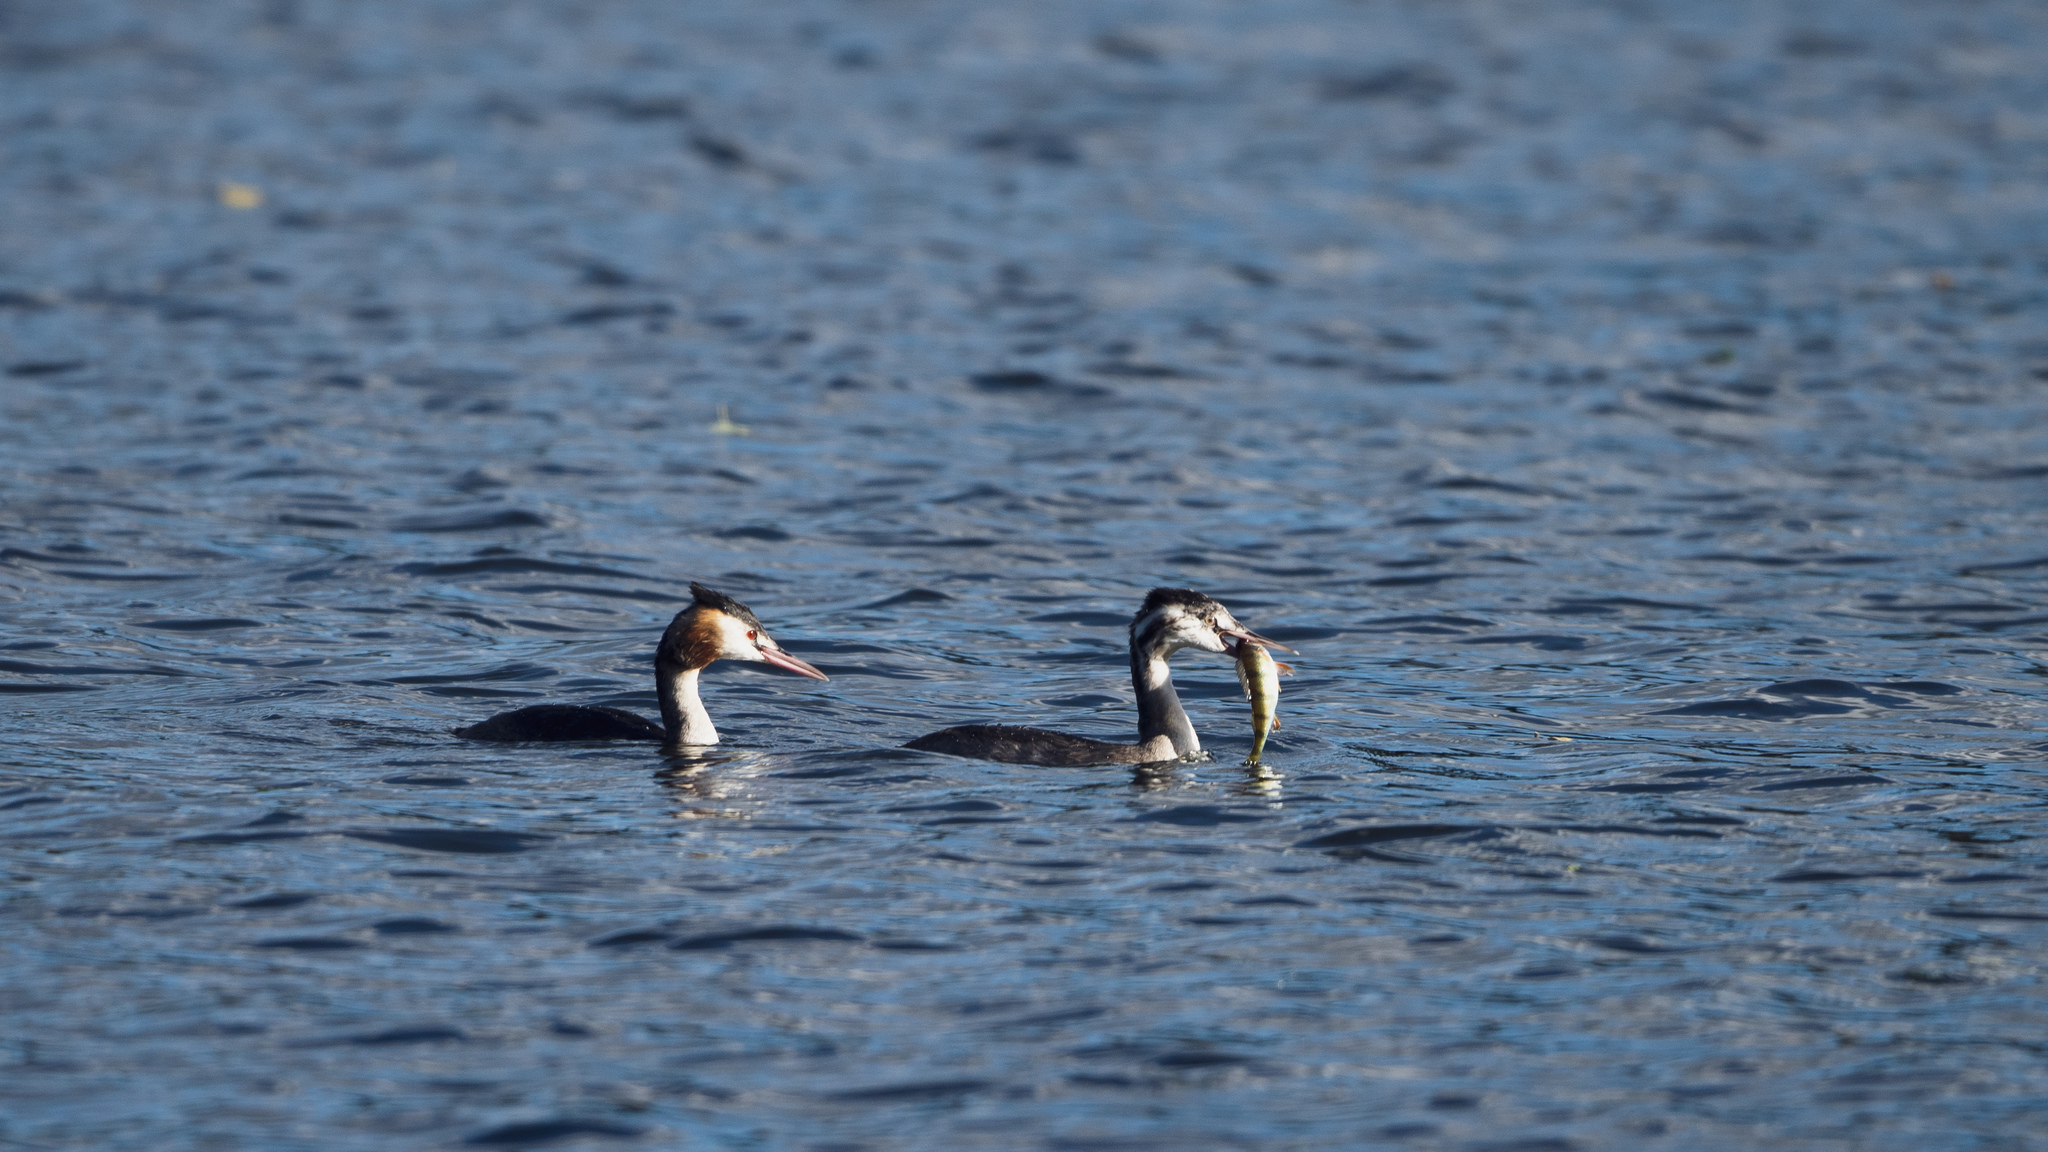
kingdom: Animalia
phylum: Chordata
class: Aves
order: Podicipediformes
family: Podicipedidae
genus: Podiceps
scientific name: Podiceps cristatus
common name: Great crested grebe
